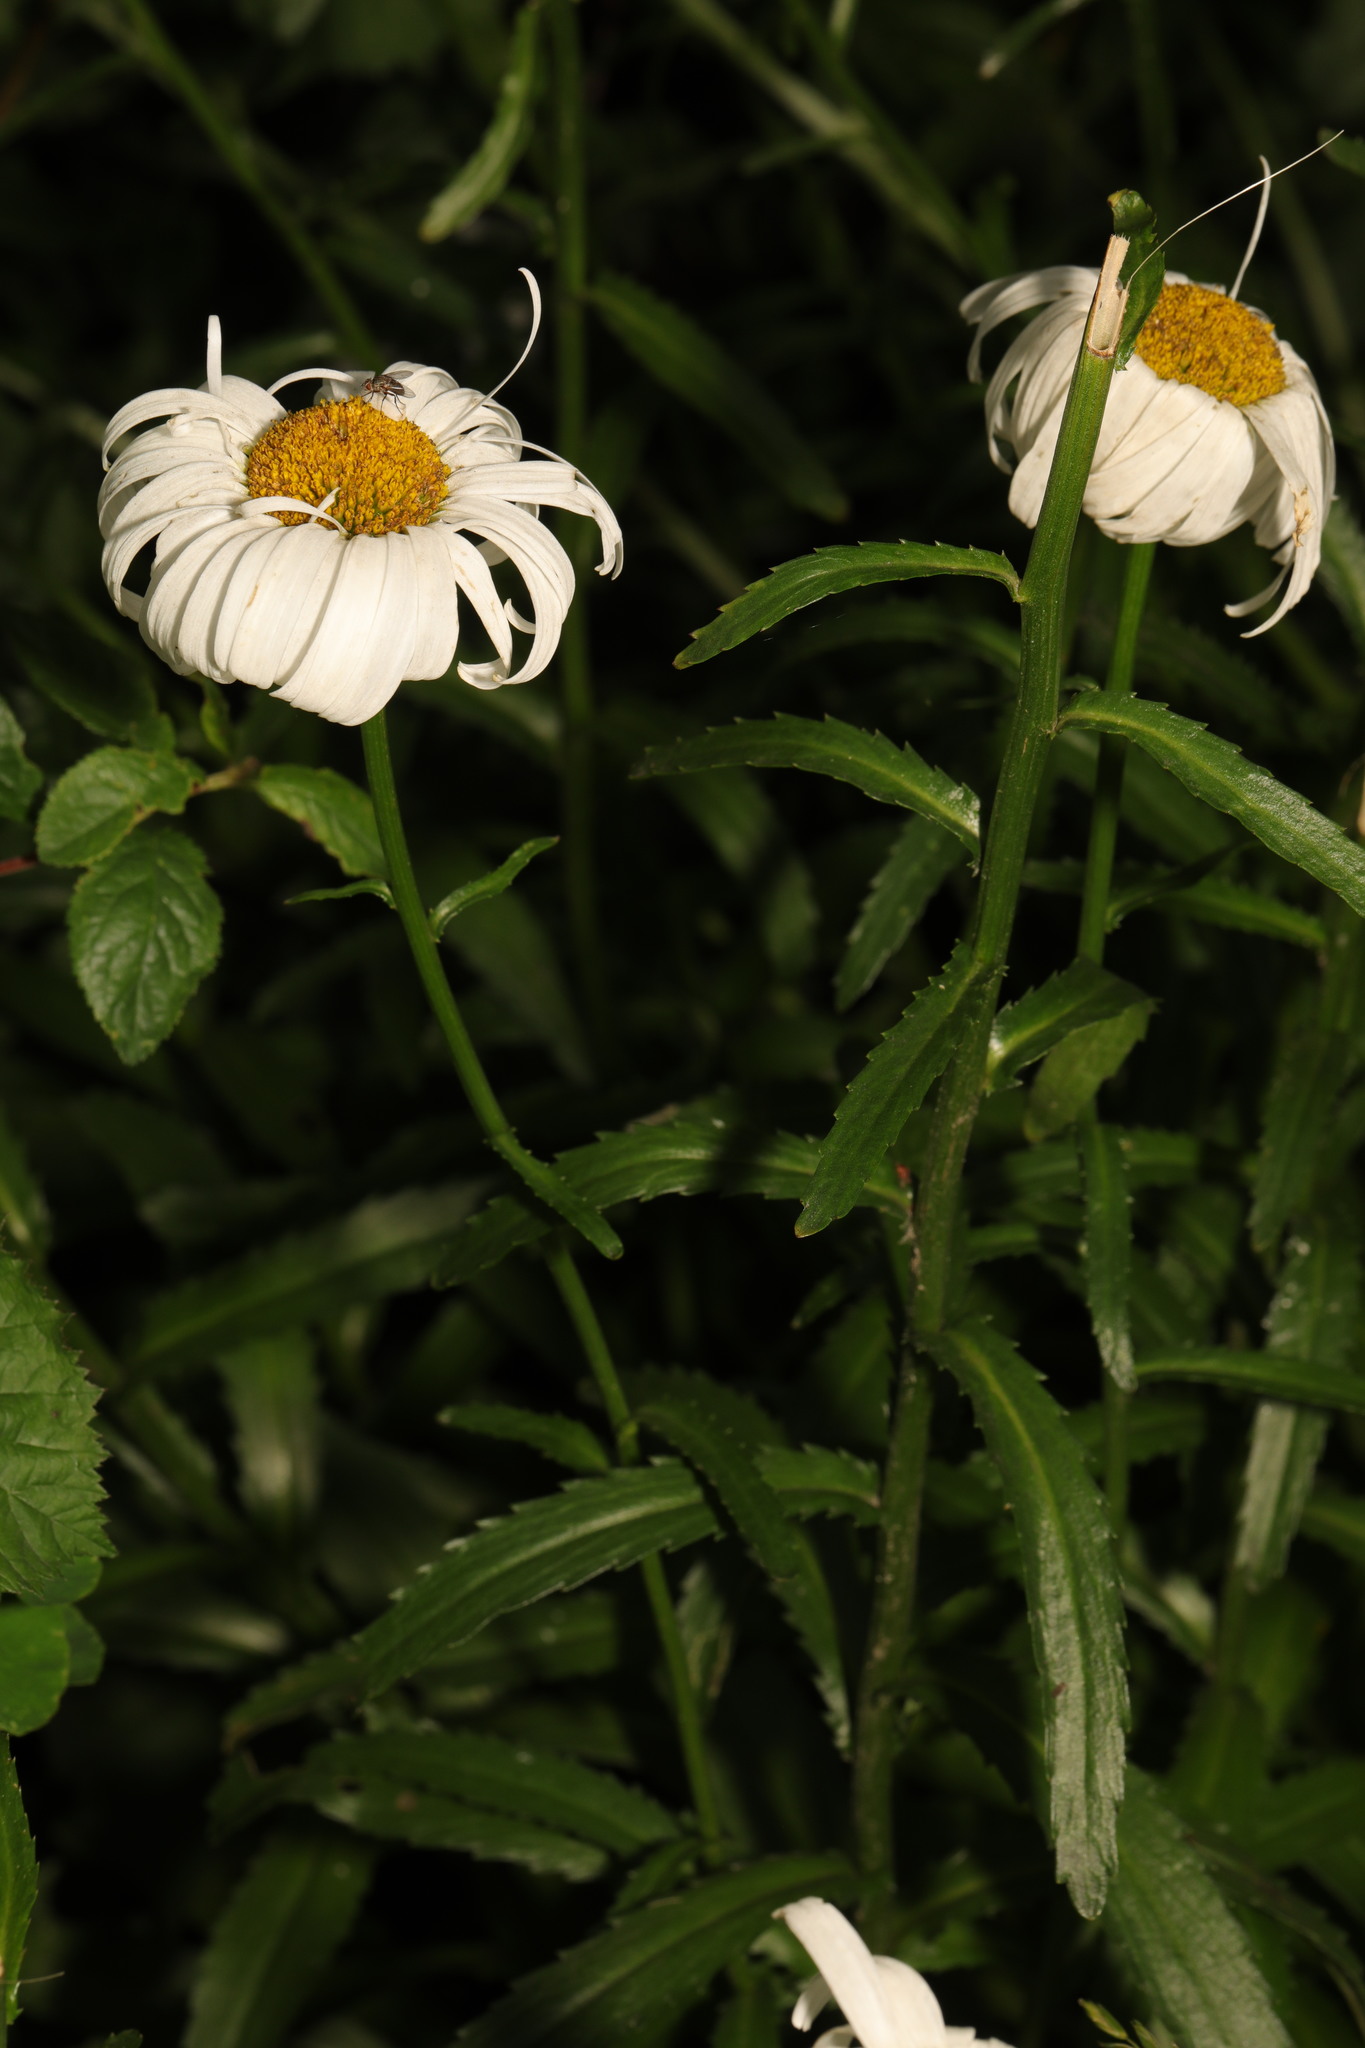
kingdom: Plantae
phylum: Tracheophyta
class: Magnoliopsida
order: Asterales
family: Asteraceae
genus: Leucanthemum
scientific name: Leucanthemum maximum
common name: Max chrysanthemum
